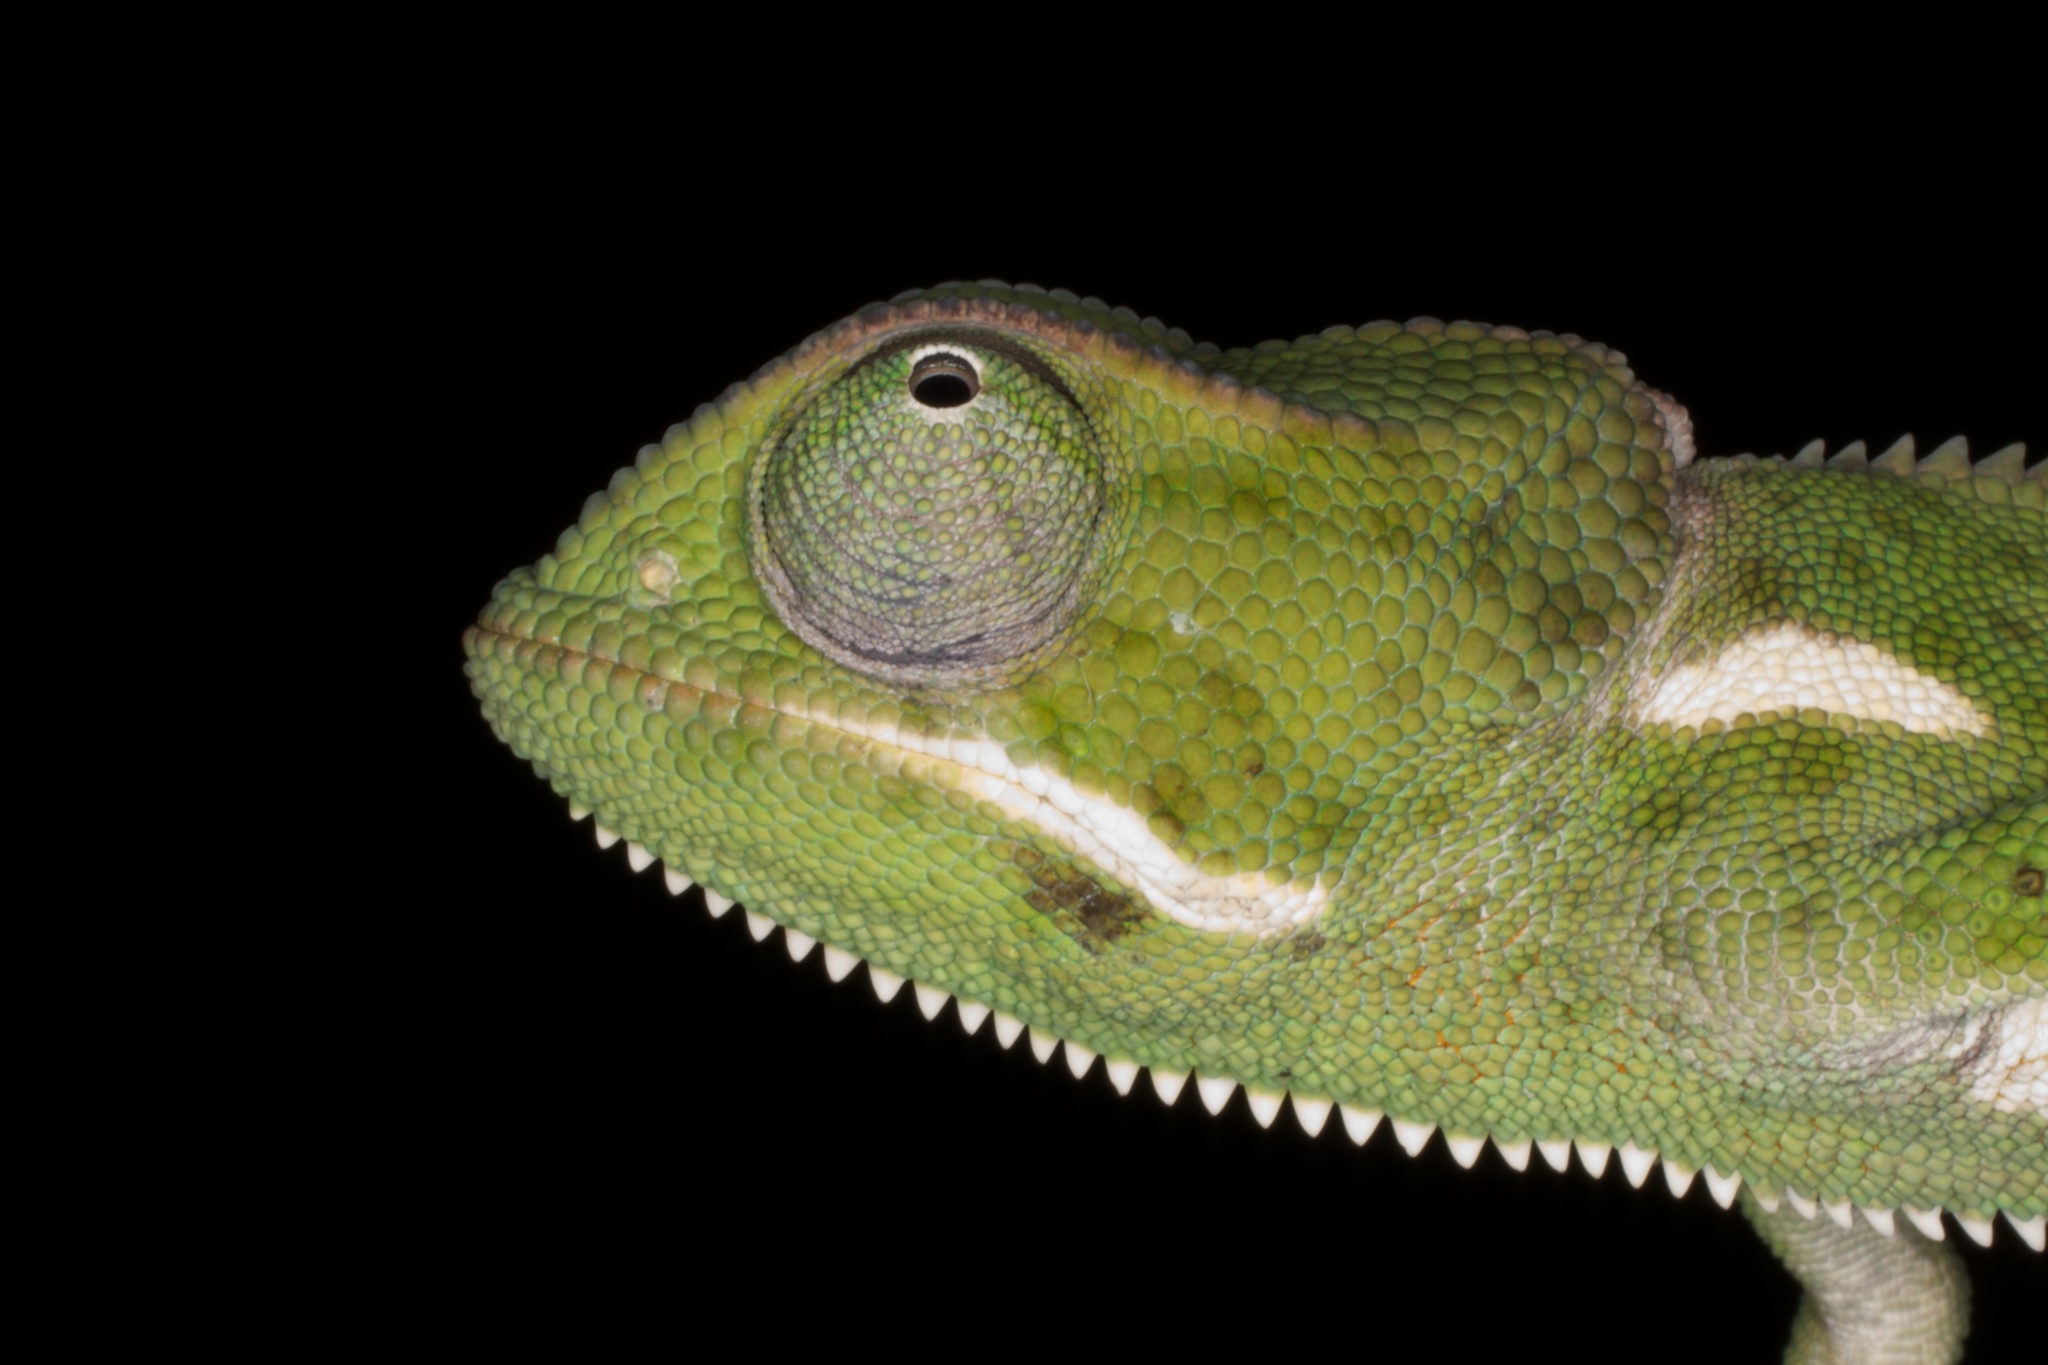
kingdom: Animalia
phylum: Chordata
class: Squamata
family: Chamaeleonidae
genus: Chamaeleo
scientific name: Chamaeleo dilepis
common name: Flapneck chameleon
